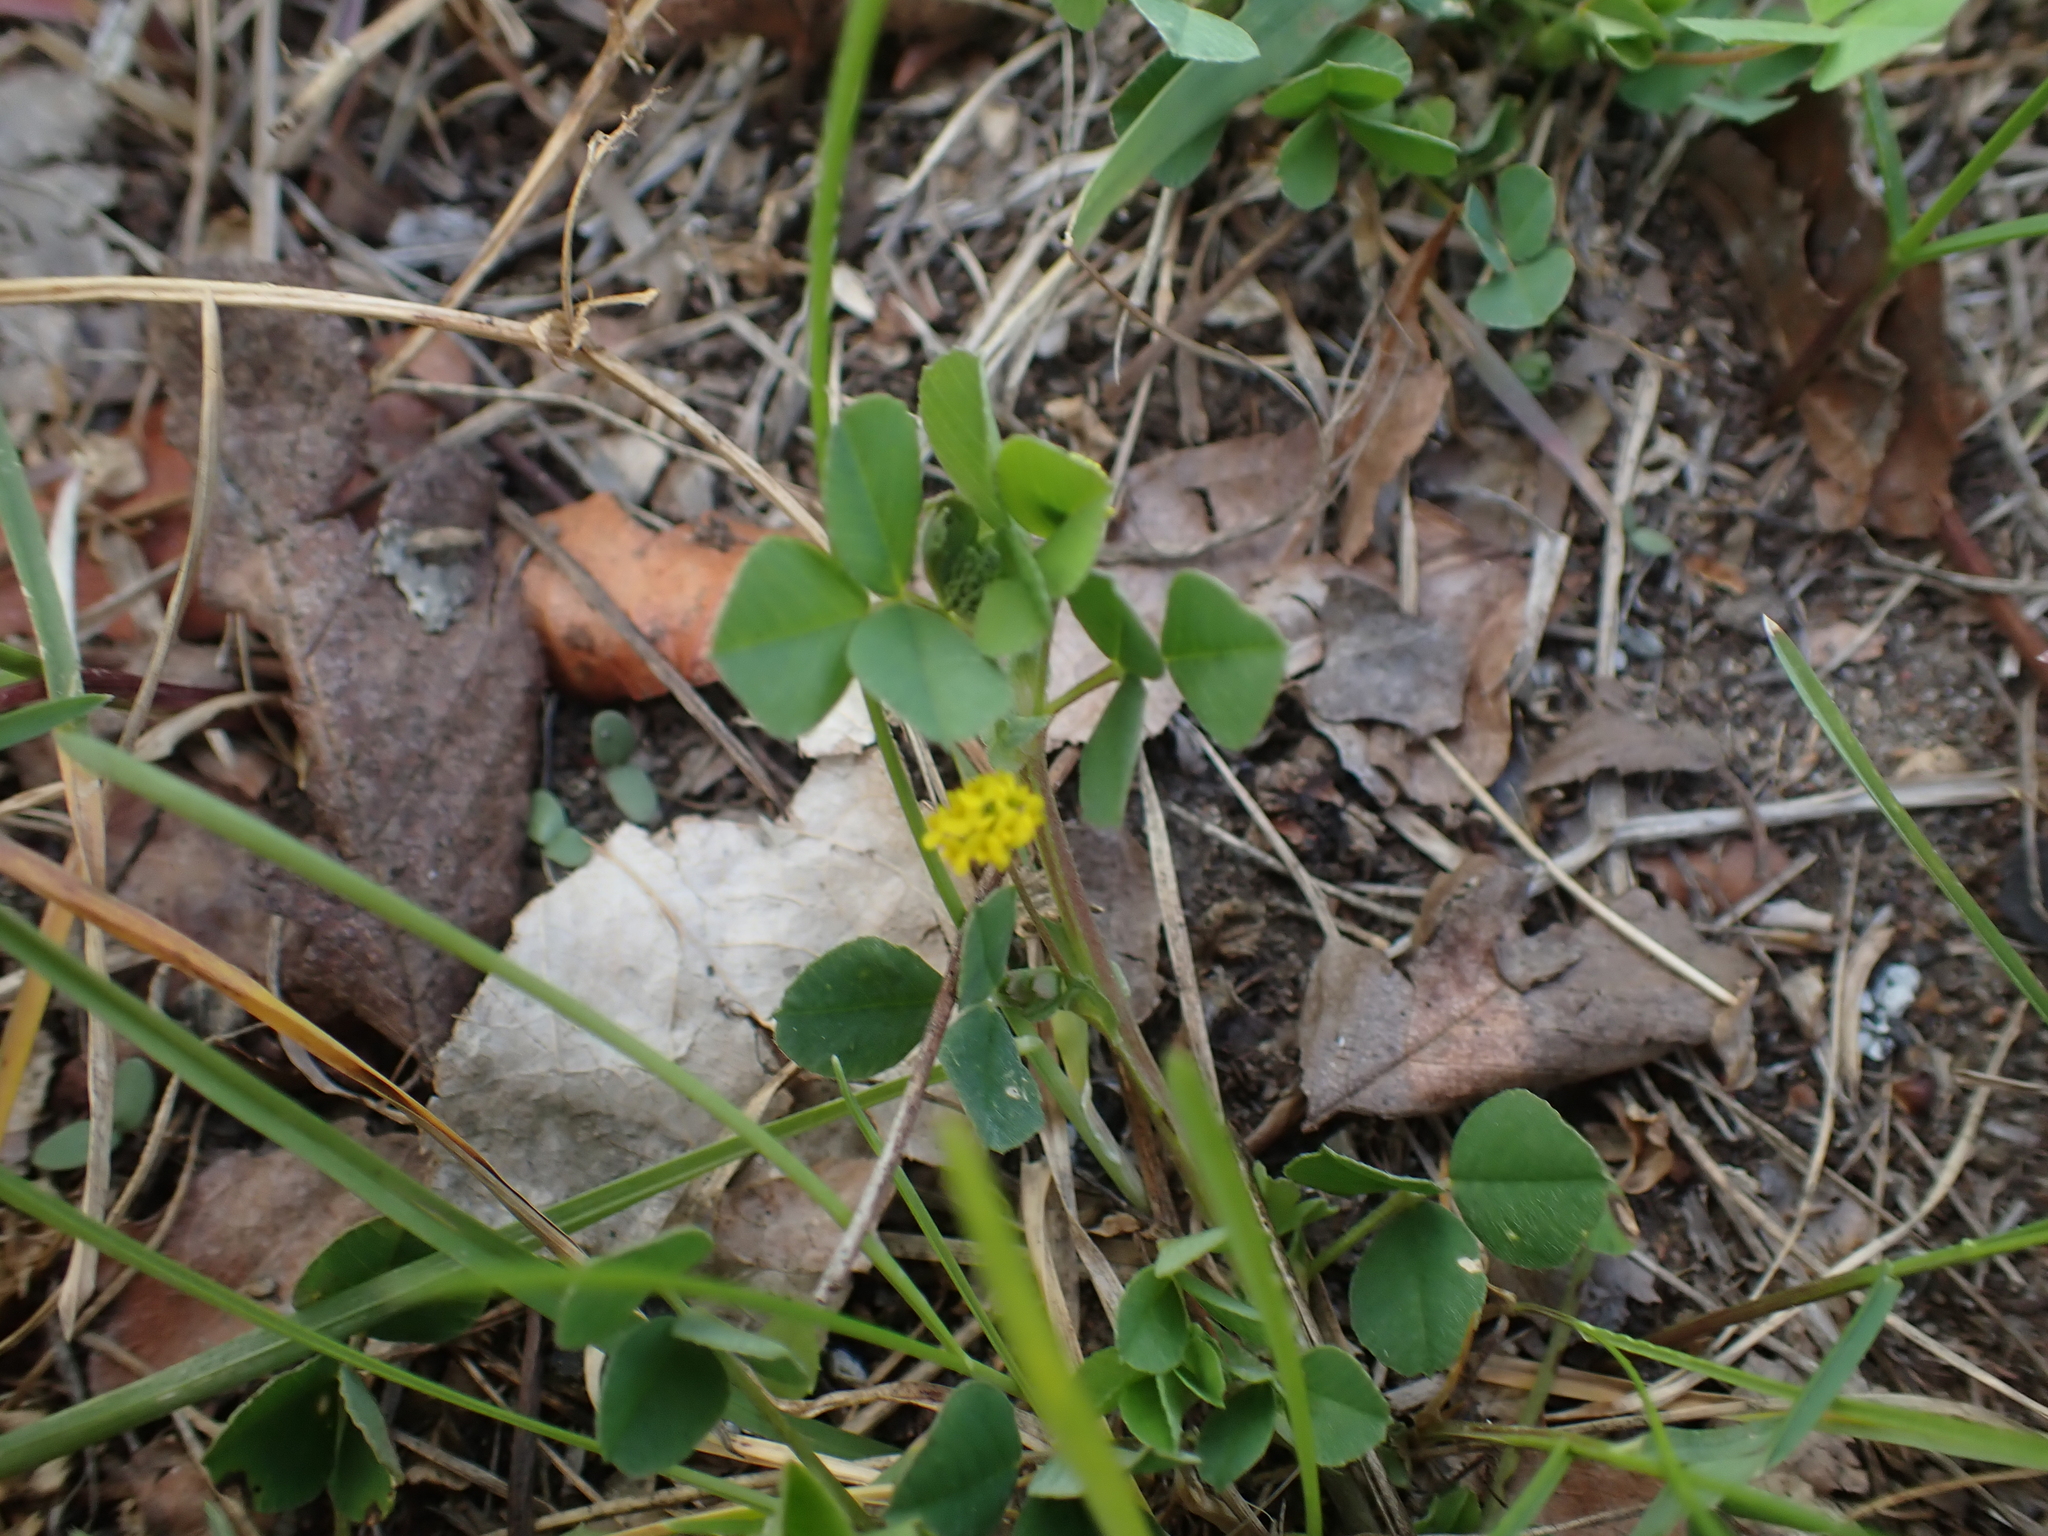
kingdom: Plantae
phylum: Tracheophyta
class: Magnoliopsida
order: Fabales
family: Fabaceae
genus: Medicago
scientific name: Medicago lupulina
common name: Black medick
